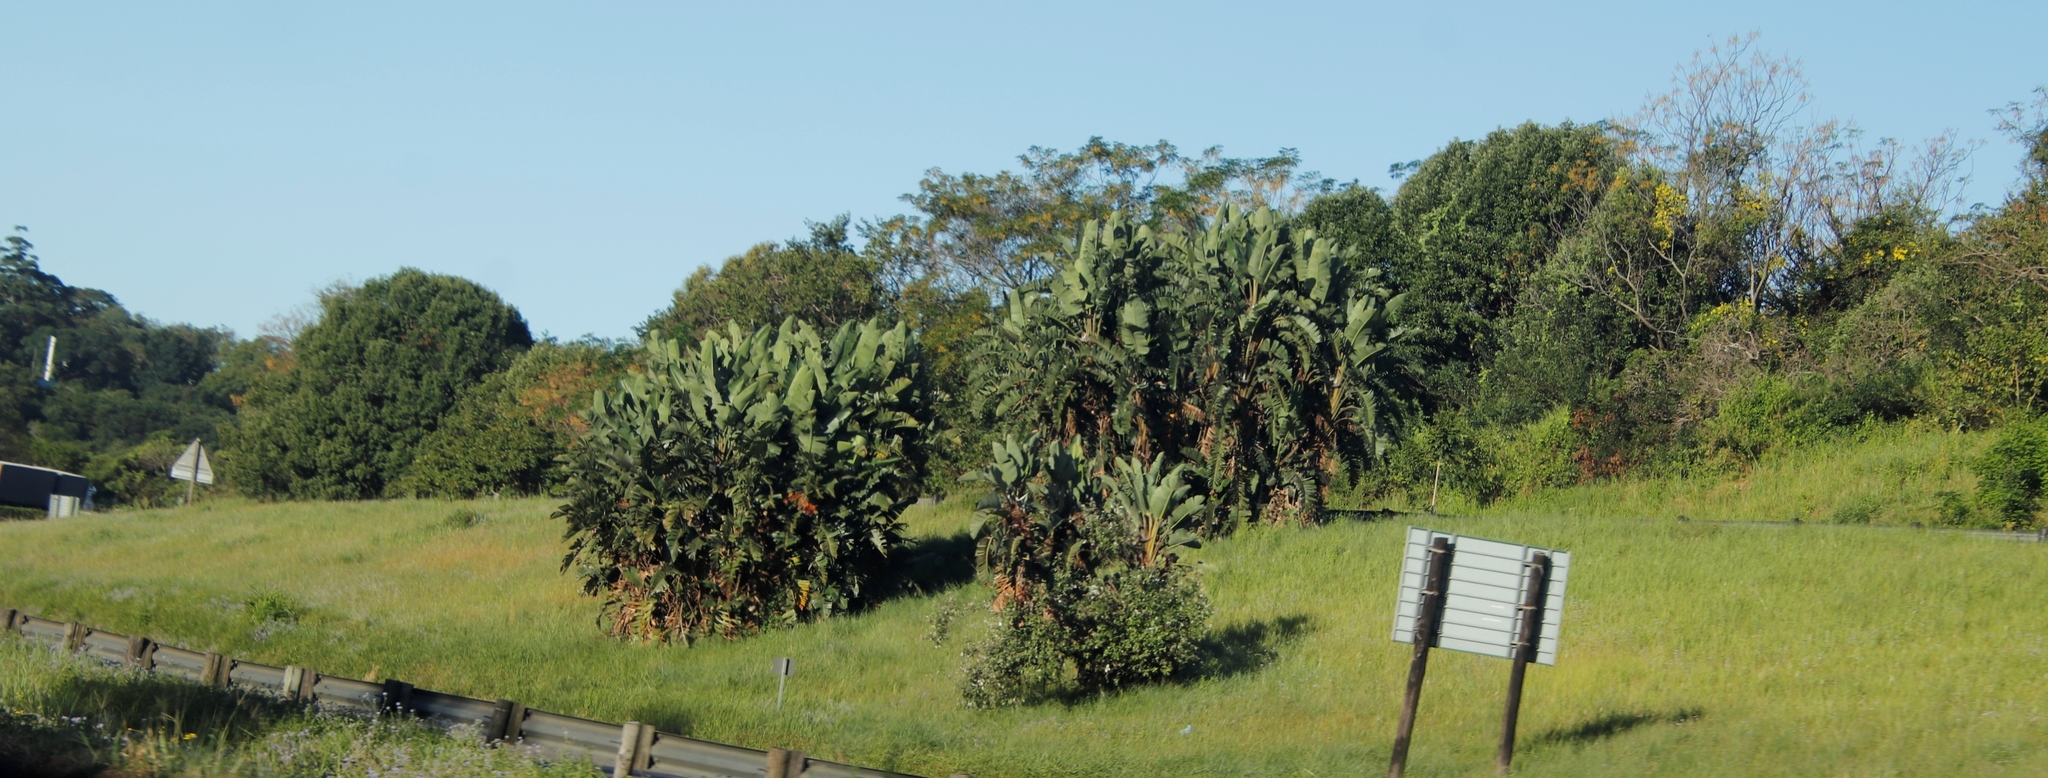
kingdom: Plantae
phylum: Tracheophyta
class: Liliopsida
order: Zingiberales
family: Strelitziaceae
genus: Strelitzia
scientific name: Strelitzia nicolai
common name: Bird-of-paradise tree
